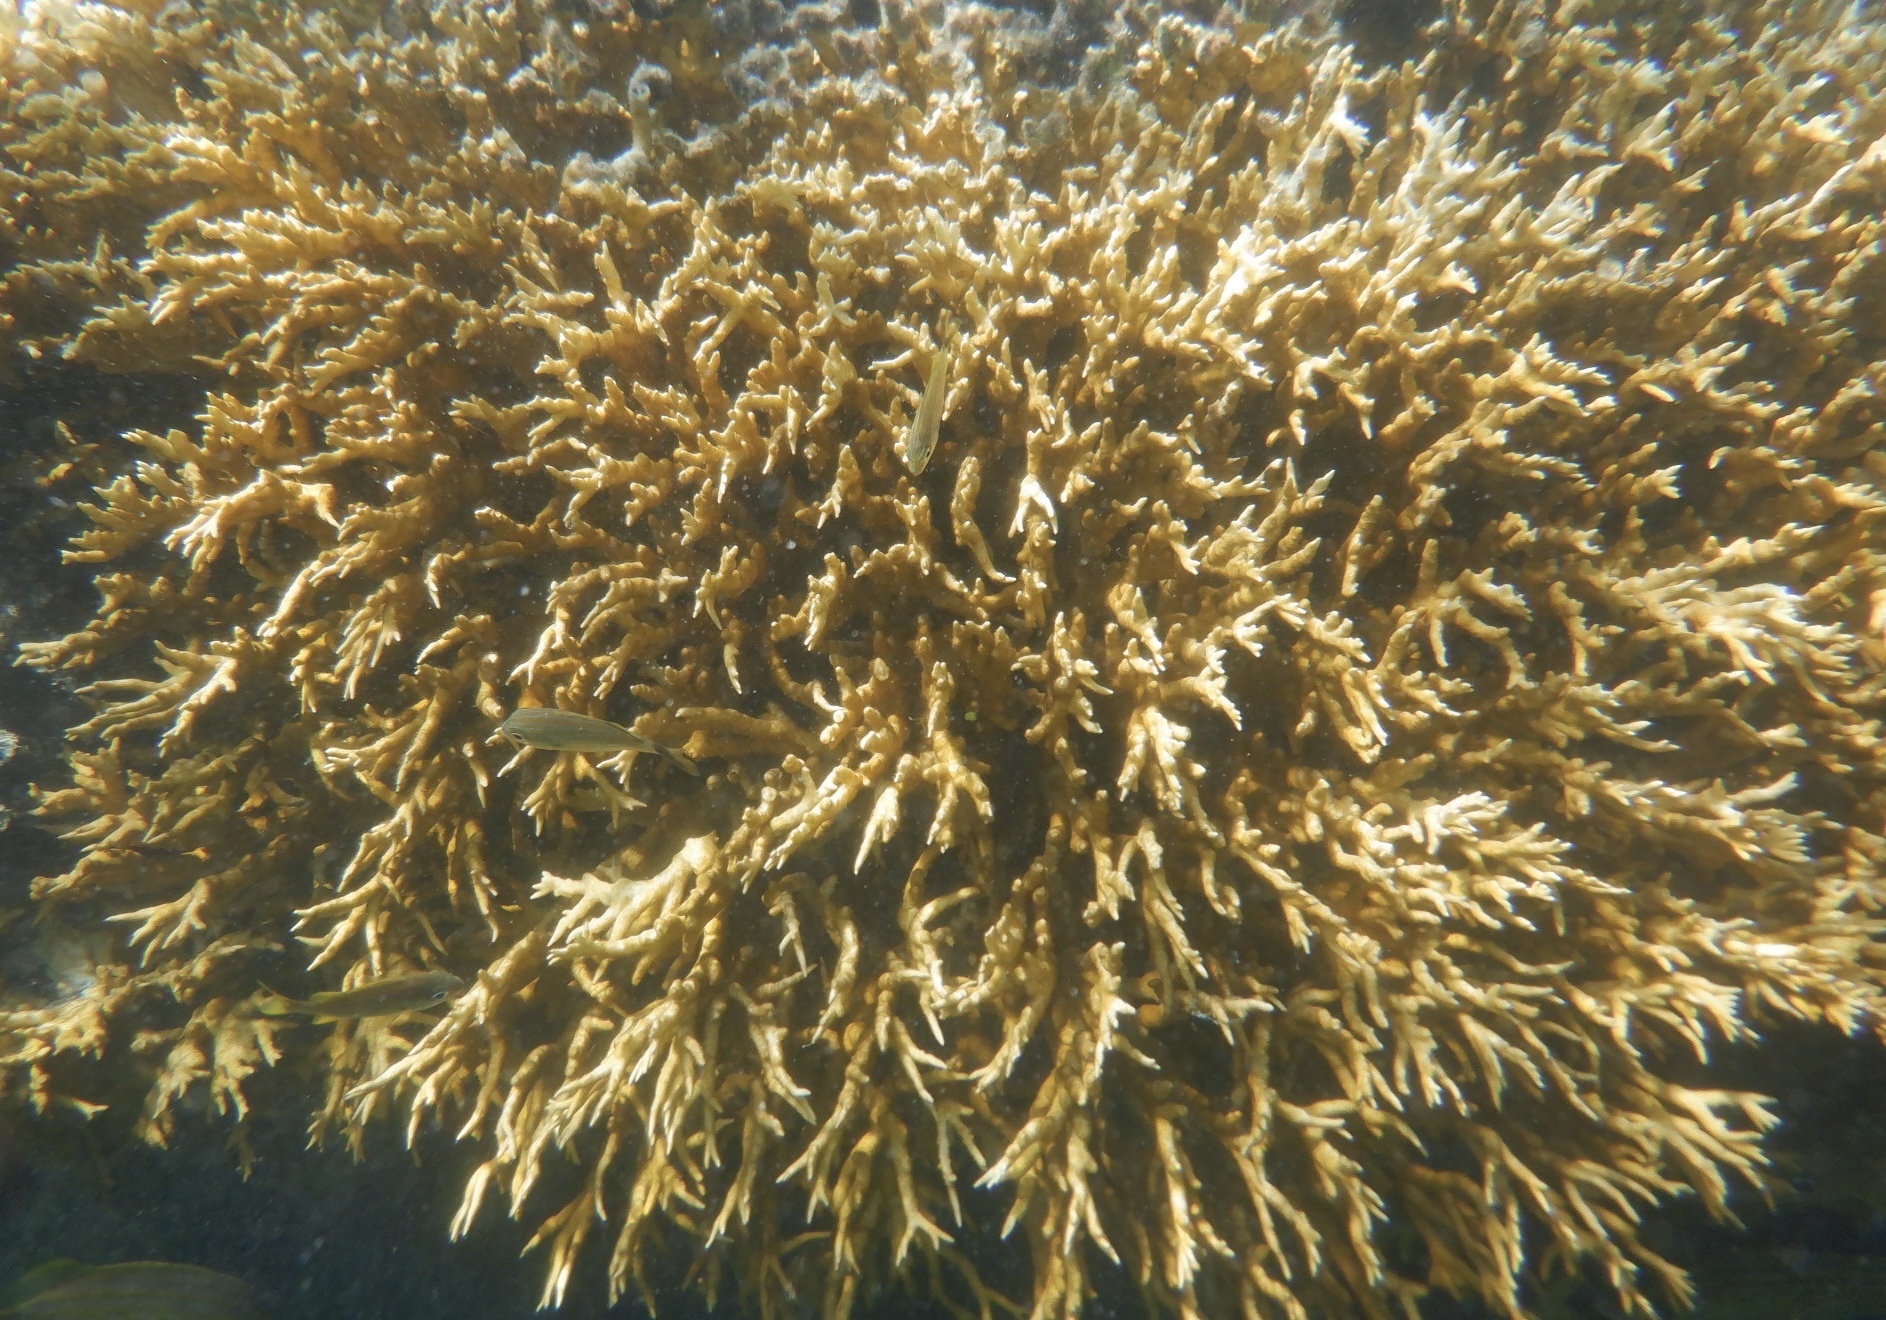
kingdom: Animalia
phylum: Cnidaria
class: Hydrozoa
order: Anthoathecata
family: Milleporidae
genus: Millepora
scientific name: Millepora alcicornis
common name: Branching fire coral
